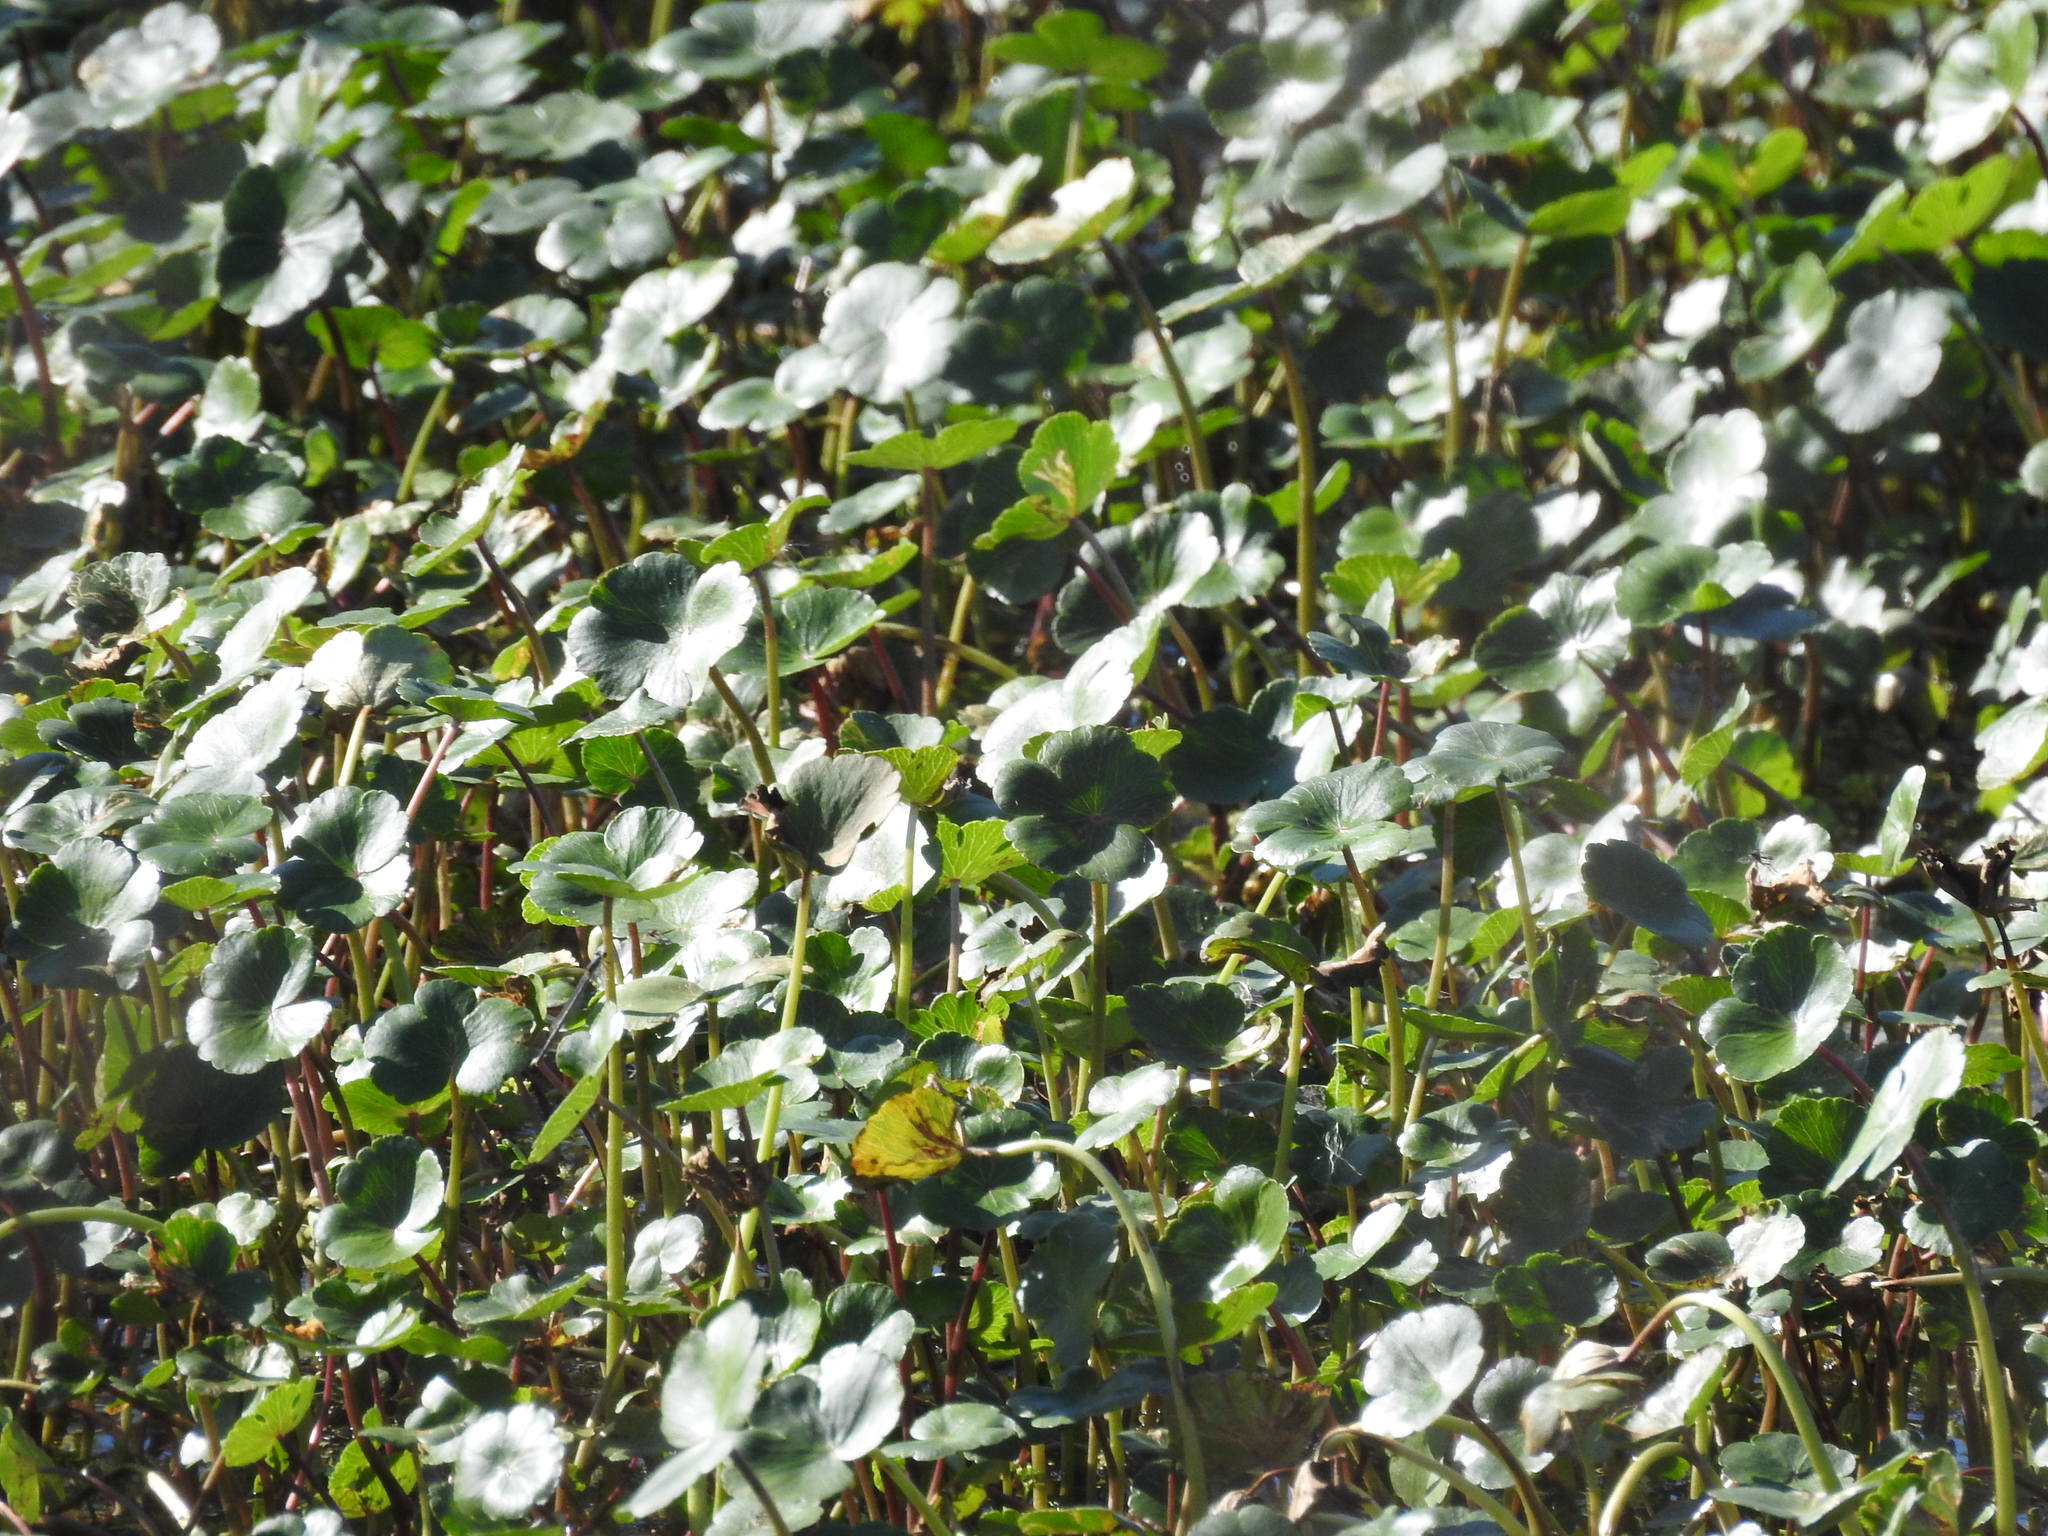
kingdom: Plantae
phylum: Tracheophyta
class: Magnoliopsida
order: Apiales
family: Araliaceae
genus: Hydrocotyle
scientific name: Hydrocotyle ranunculoides
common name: Floating pennywort
